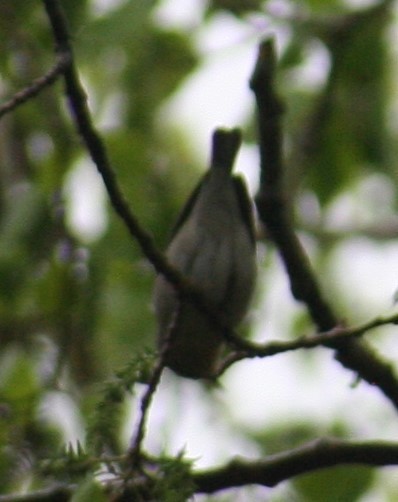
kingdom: Animalia
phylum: Chordata
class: Aves
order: Passeriformes
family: Parulidae
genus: Leiothlypis
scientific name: Leiothlypis peregrina
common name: Tennessee warbler
